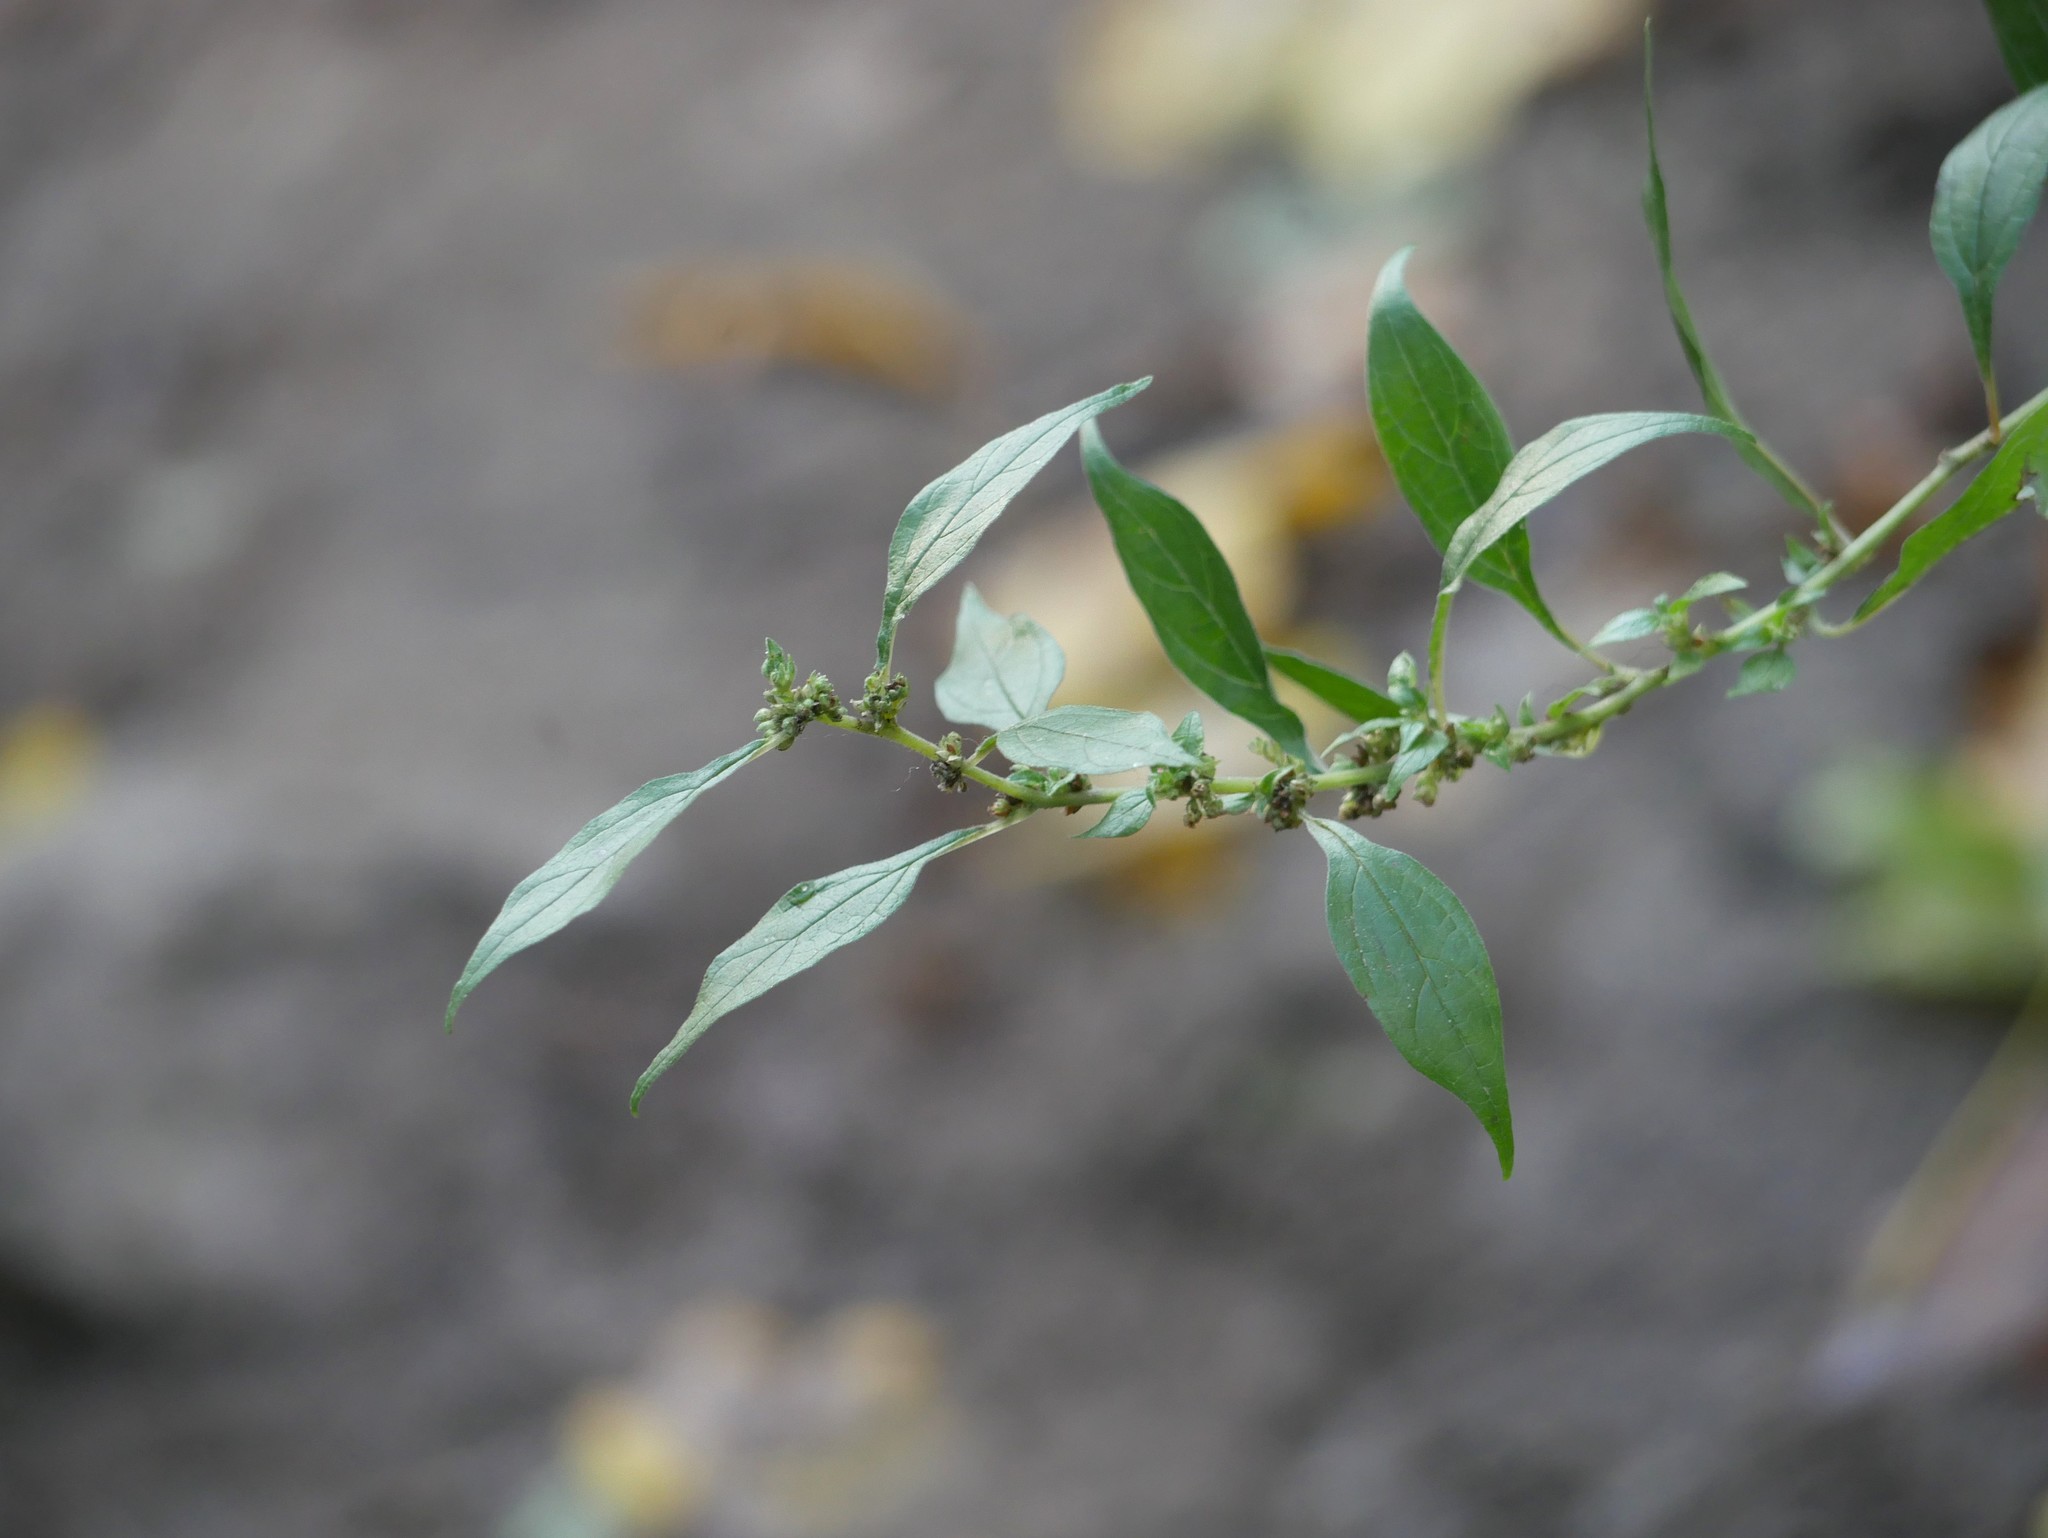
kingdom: Plantae
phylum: Tracheophyta
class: Magnoliopsida
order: Rosales
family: Urticaceae
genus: Parietaria
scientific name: Parietaria officinalis
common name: Eastern pellitory-of-the-wall
